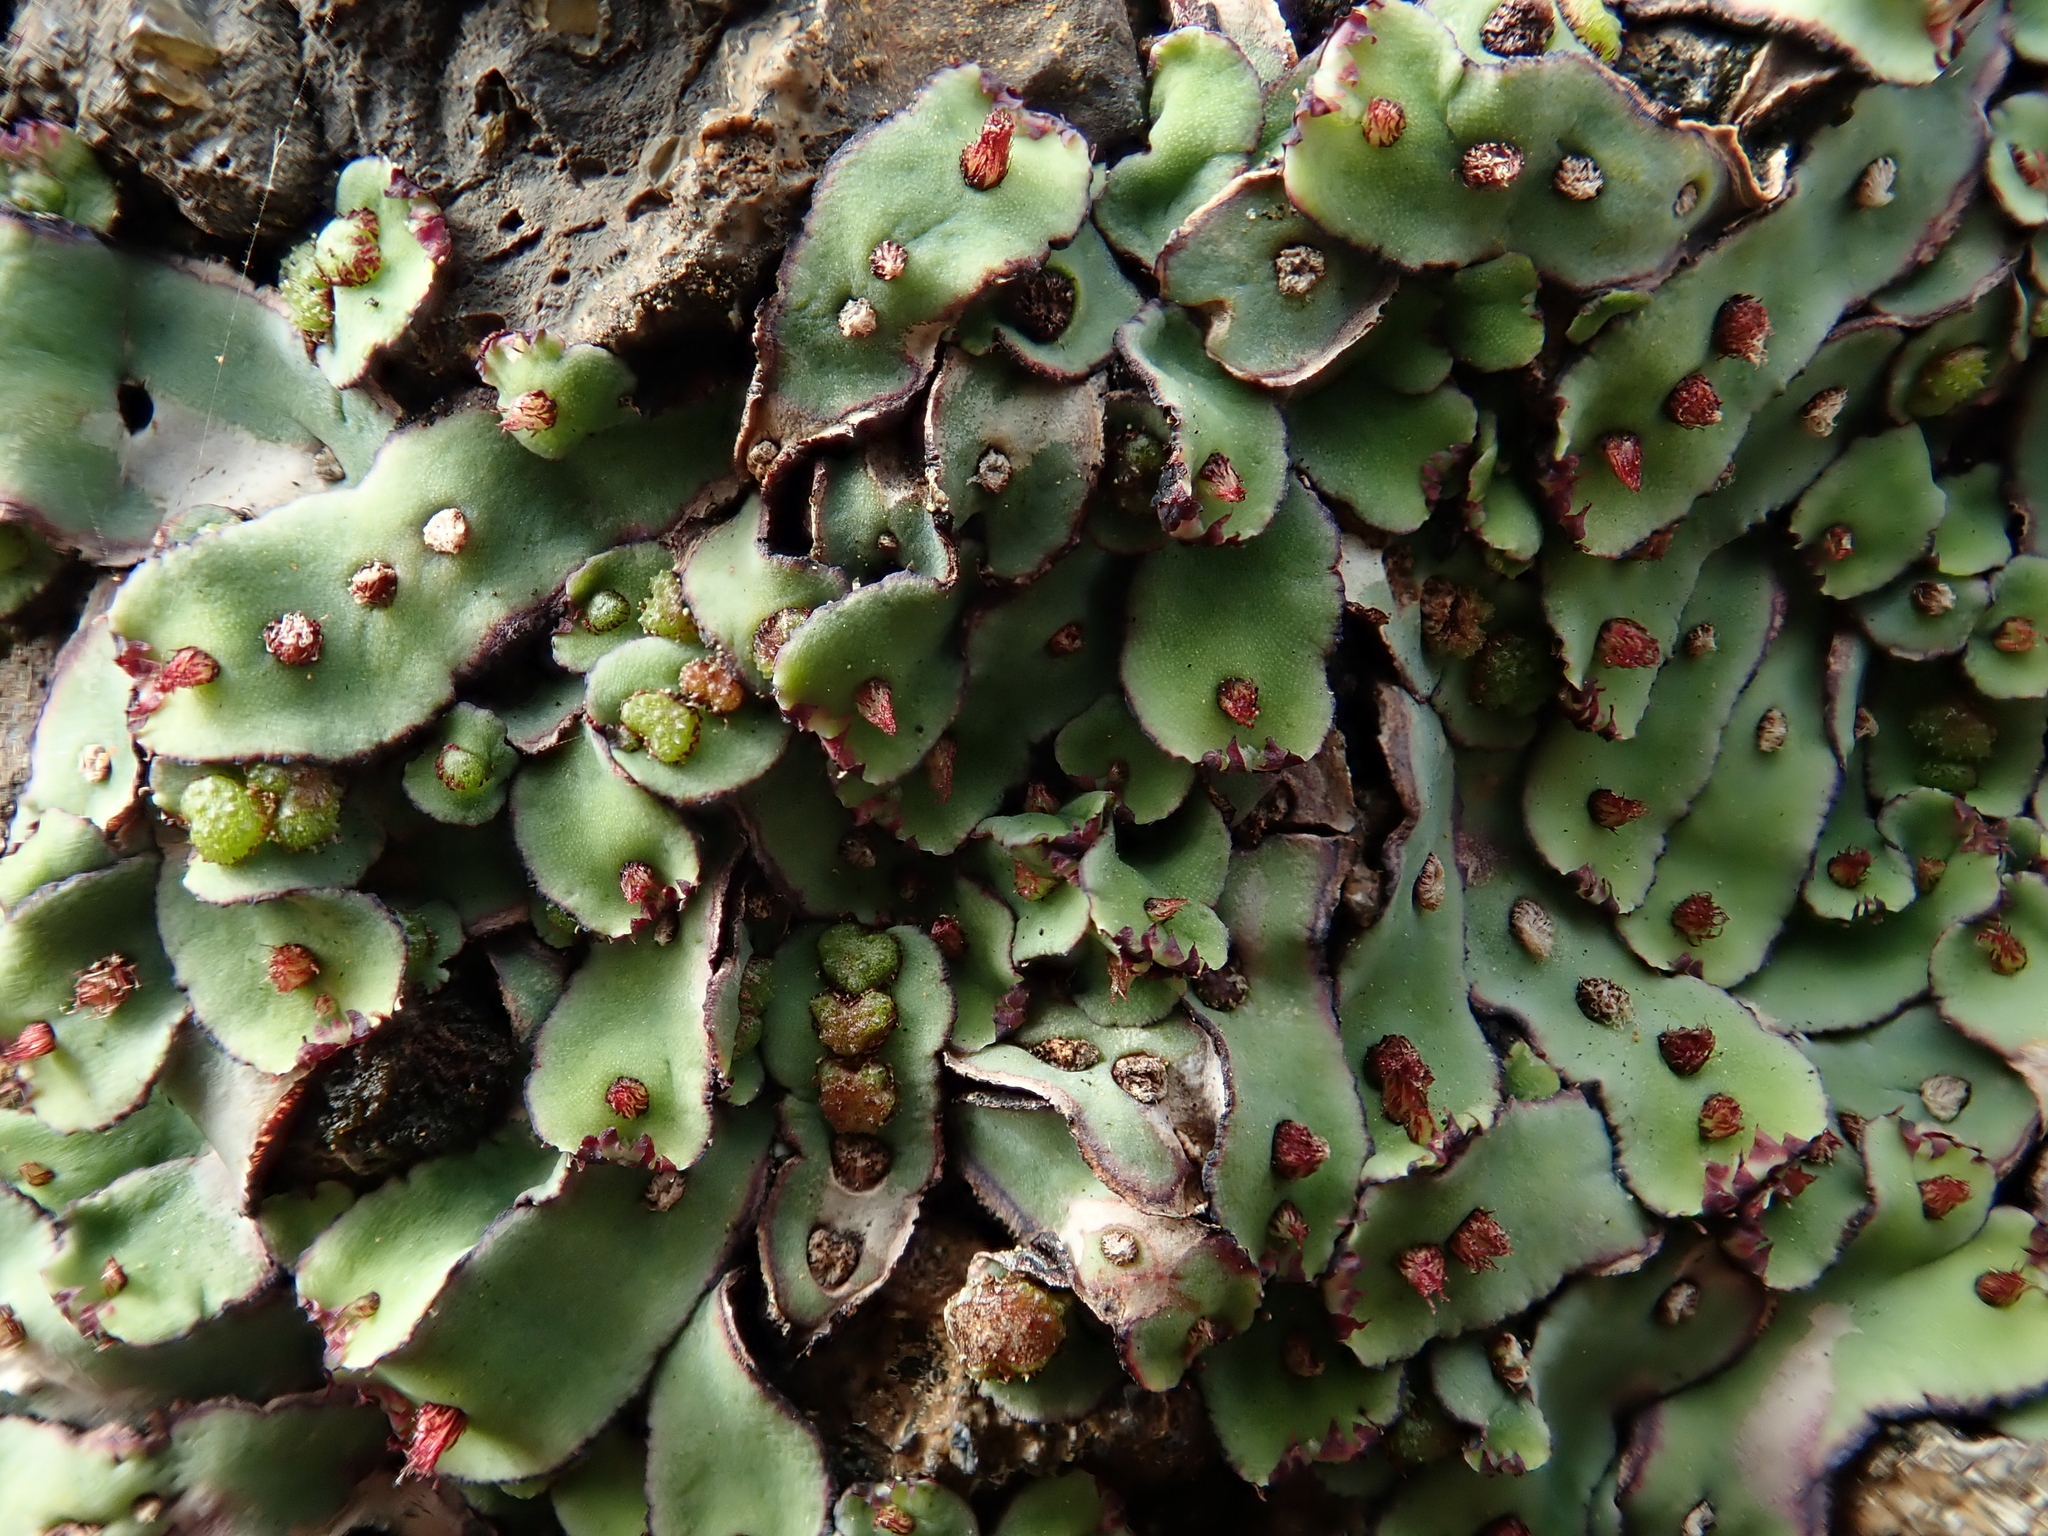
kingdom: Plantae
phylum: Marchantiophyta
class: Marchantiopsida
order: Marchantiales
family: Aytoniaceae
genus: Plagiochasma
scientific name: Plagiochasma rupestre
